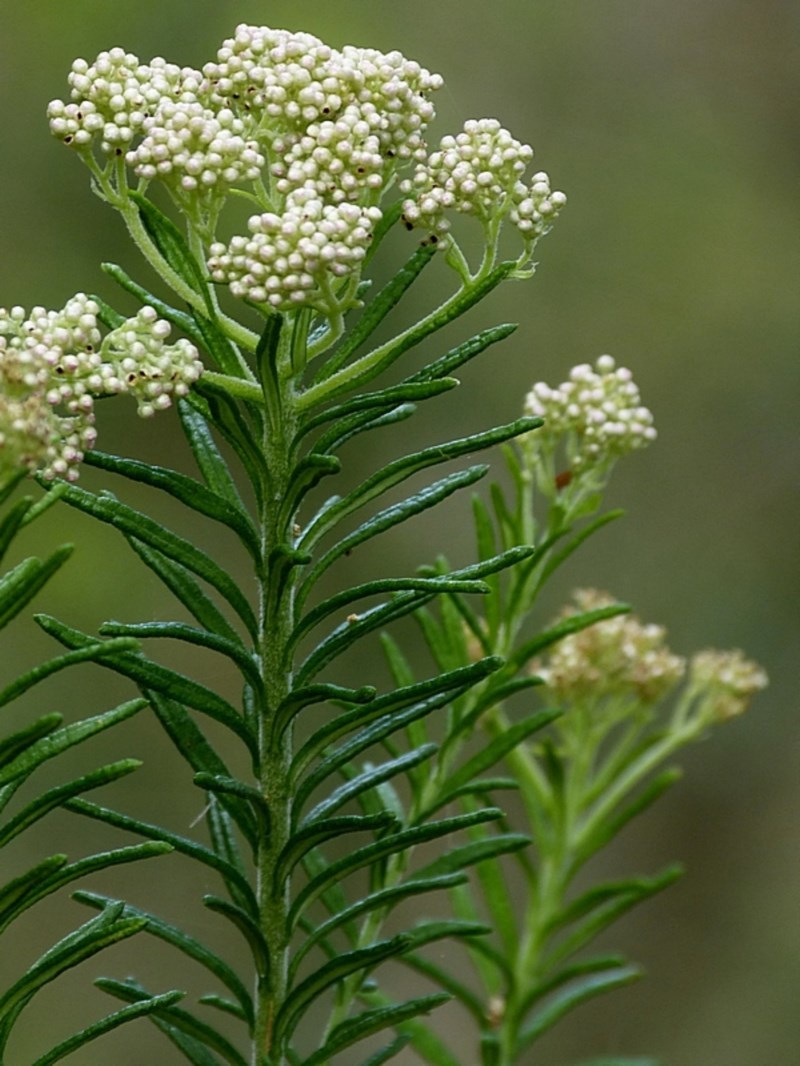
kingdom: Plantae
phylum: Tracheophyta
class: Magnoliopsida
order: Asterales
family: Asteraceae
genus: Ozothamnus
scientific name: Ozothamnus diosmifolius
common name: White-dogwood
